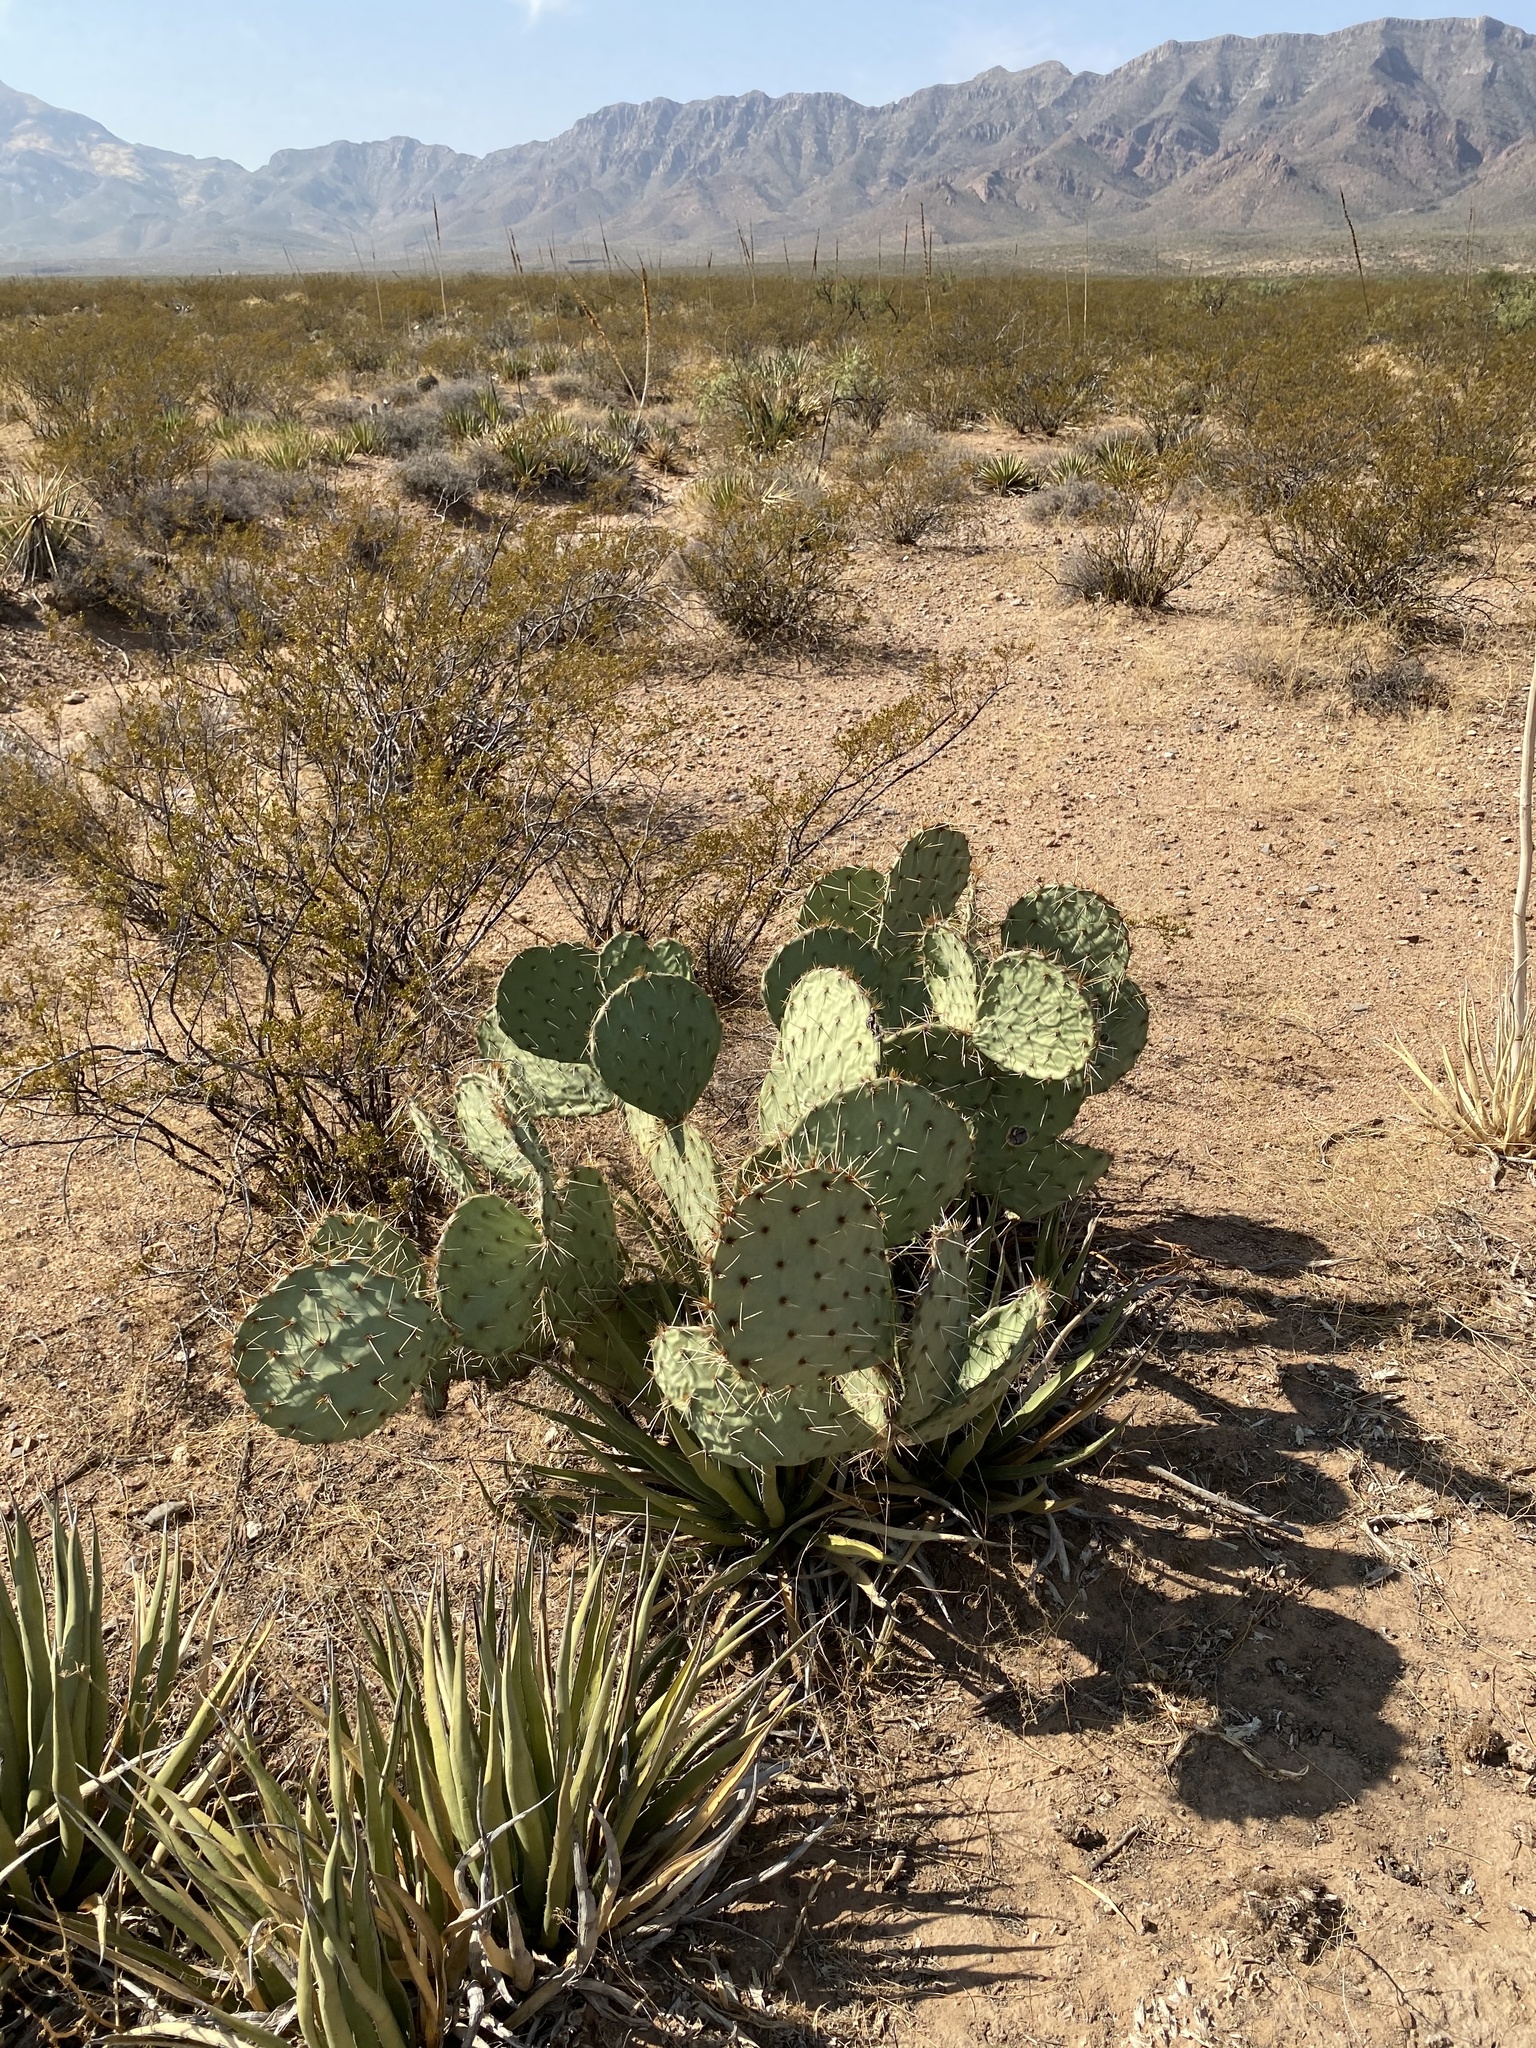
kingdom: Plantae
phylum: Tracheophyta
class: Magnoliopsida
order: Caryophyllales
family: Cactaceae
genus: Opuntia
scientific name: Opuntia engelmannii
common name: Cactus-apple
